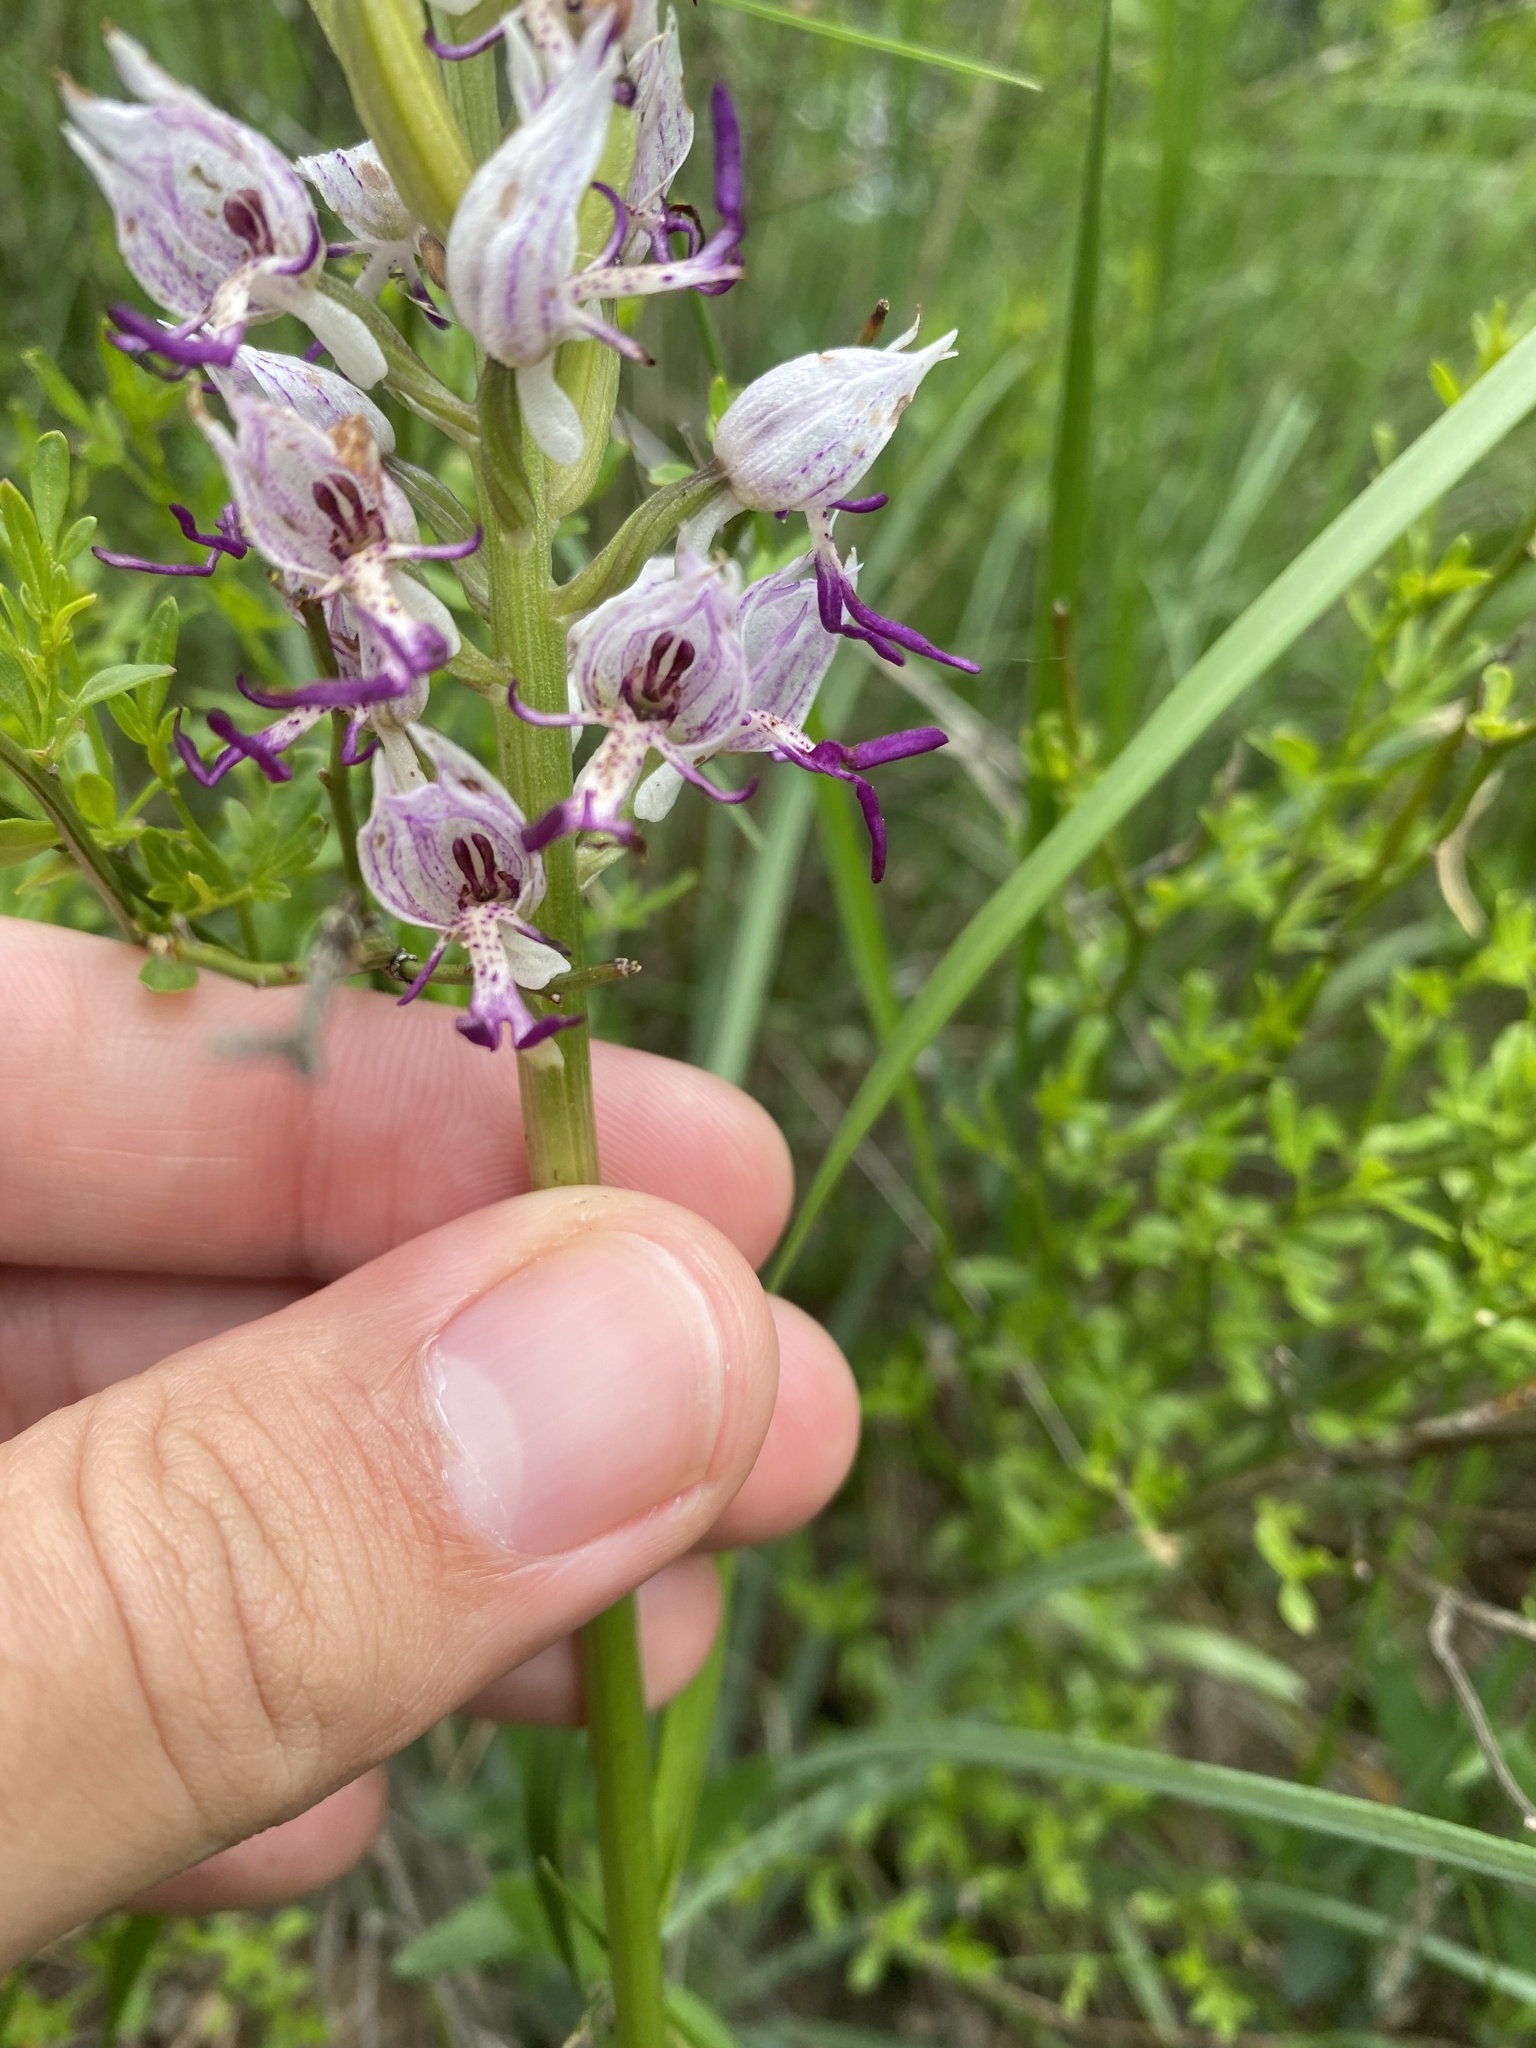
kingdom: Plantae
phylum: Tracheophyta
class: Liliopsida
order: Asparagales
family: Orchidaceae
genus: Orchis
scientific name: Orchis simia
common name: Monkey orchid
